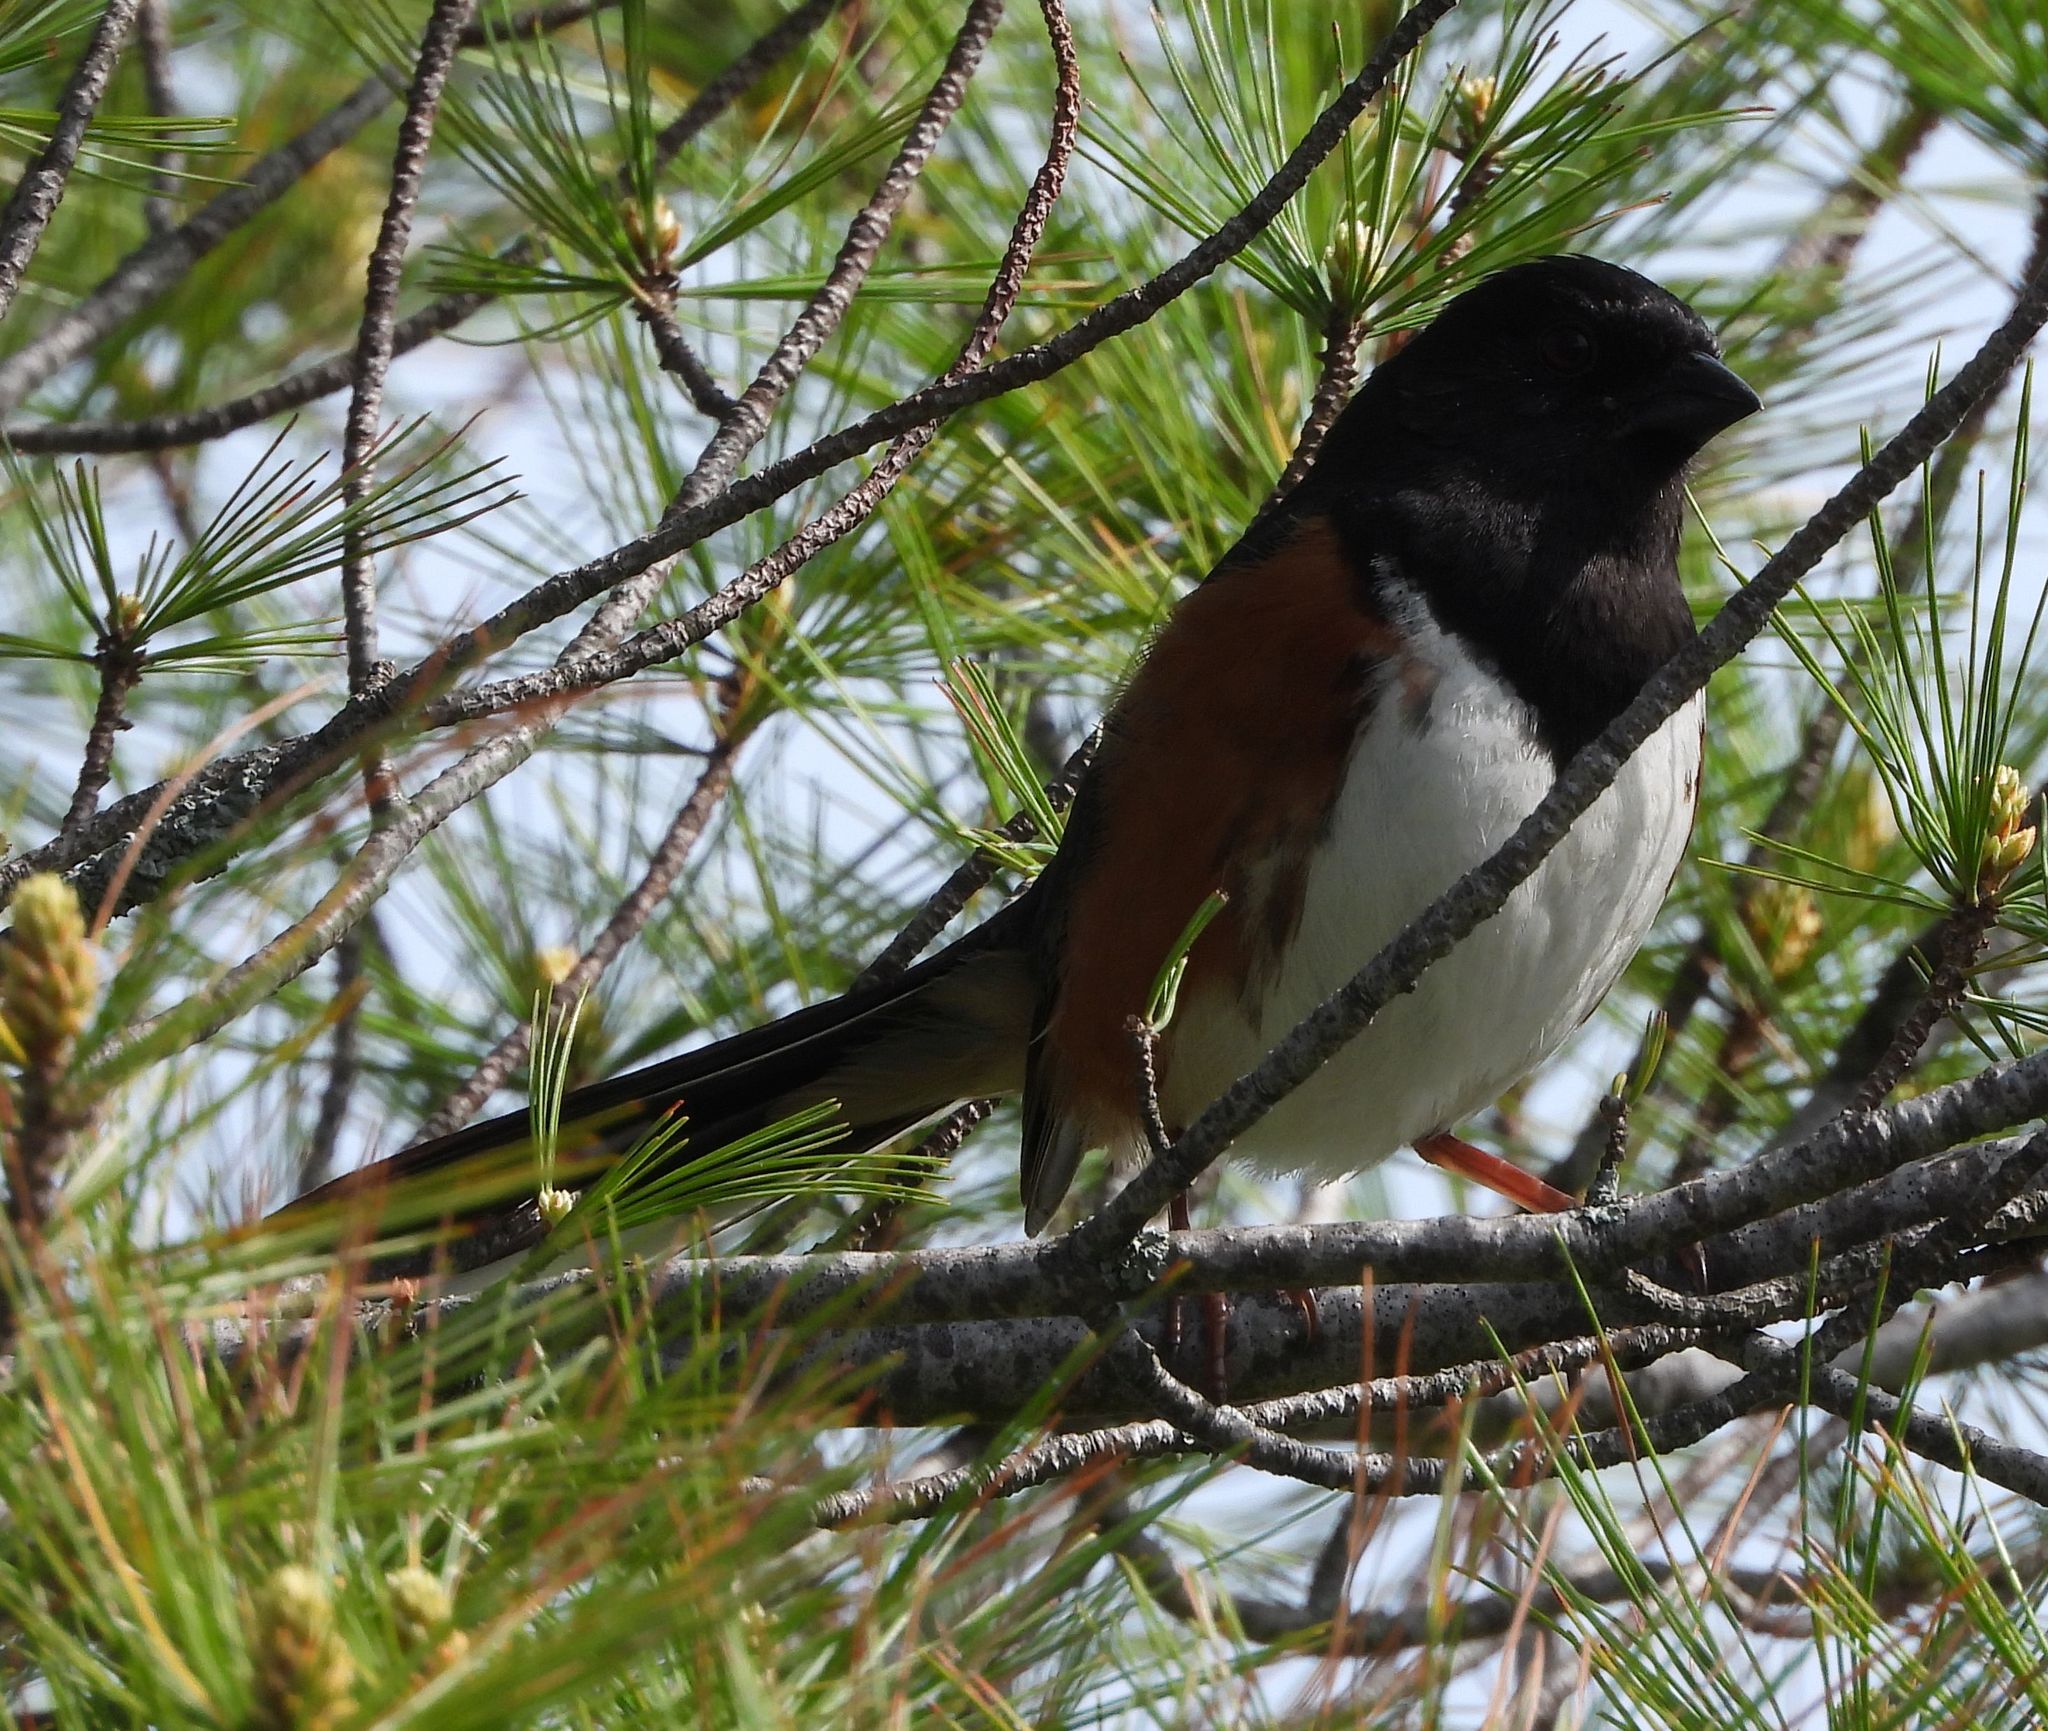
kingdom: Animalia
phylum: Chordata
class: Aves
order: Passeriformes
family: Passerellidae
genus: Pipilo
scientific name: Pipilo erythrophthalmus
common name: Eastern towhee
